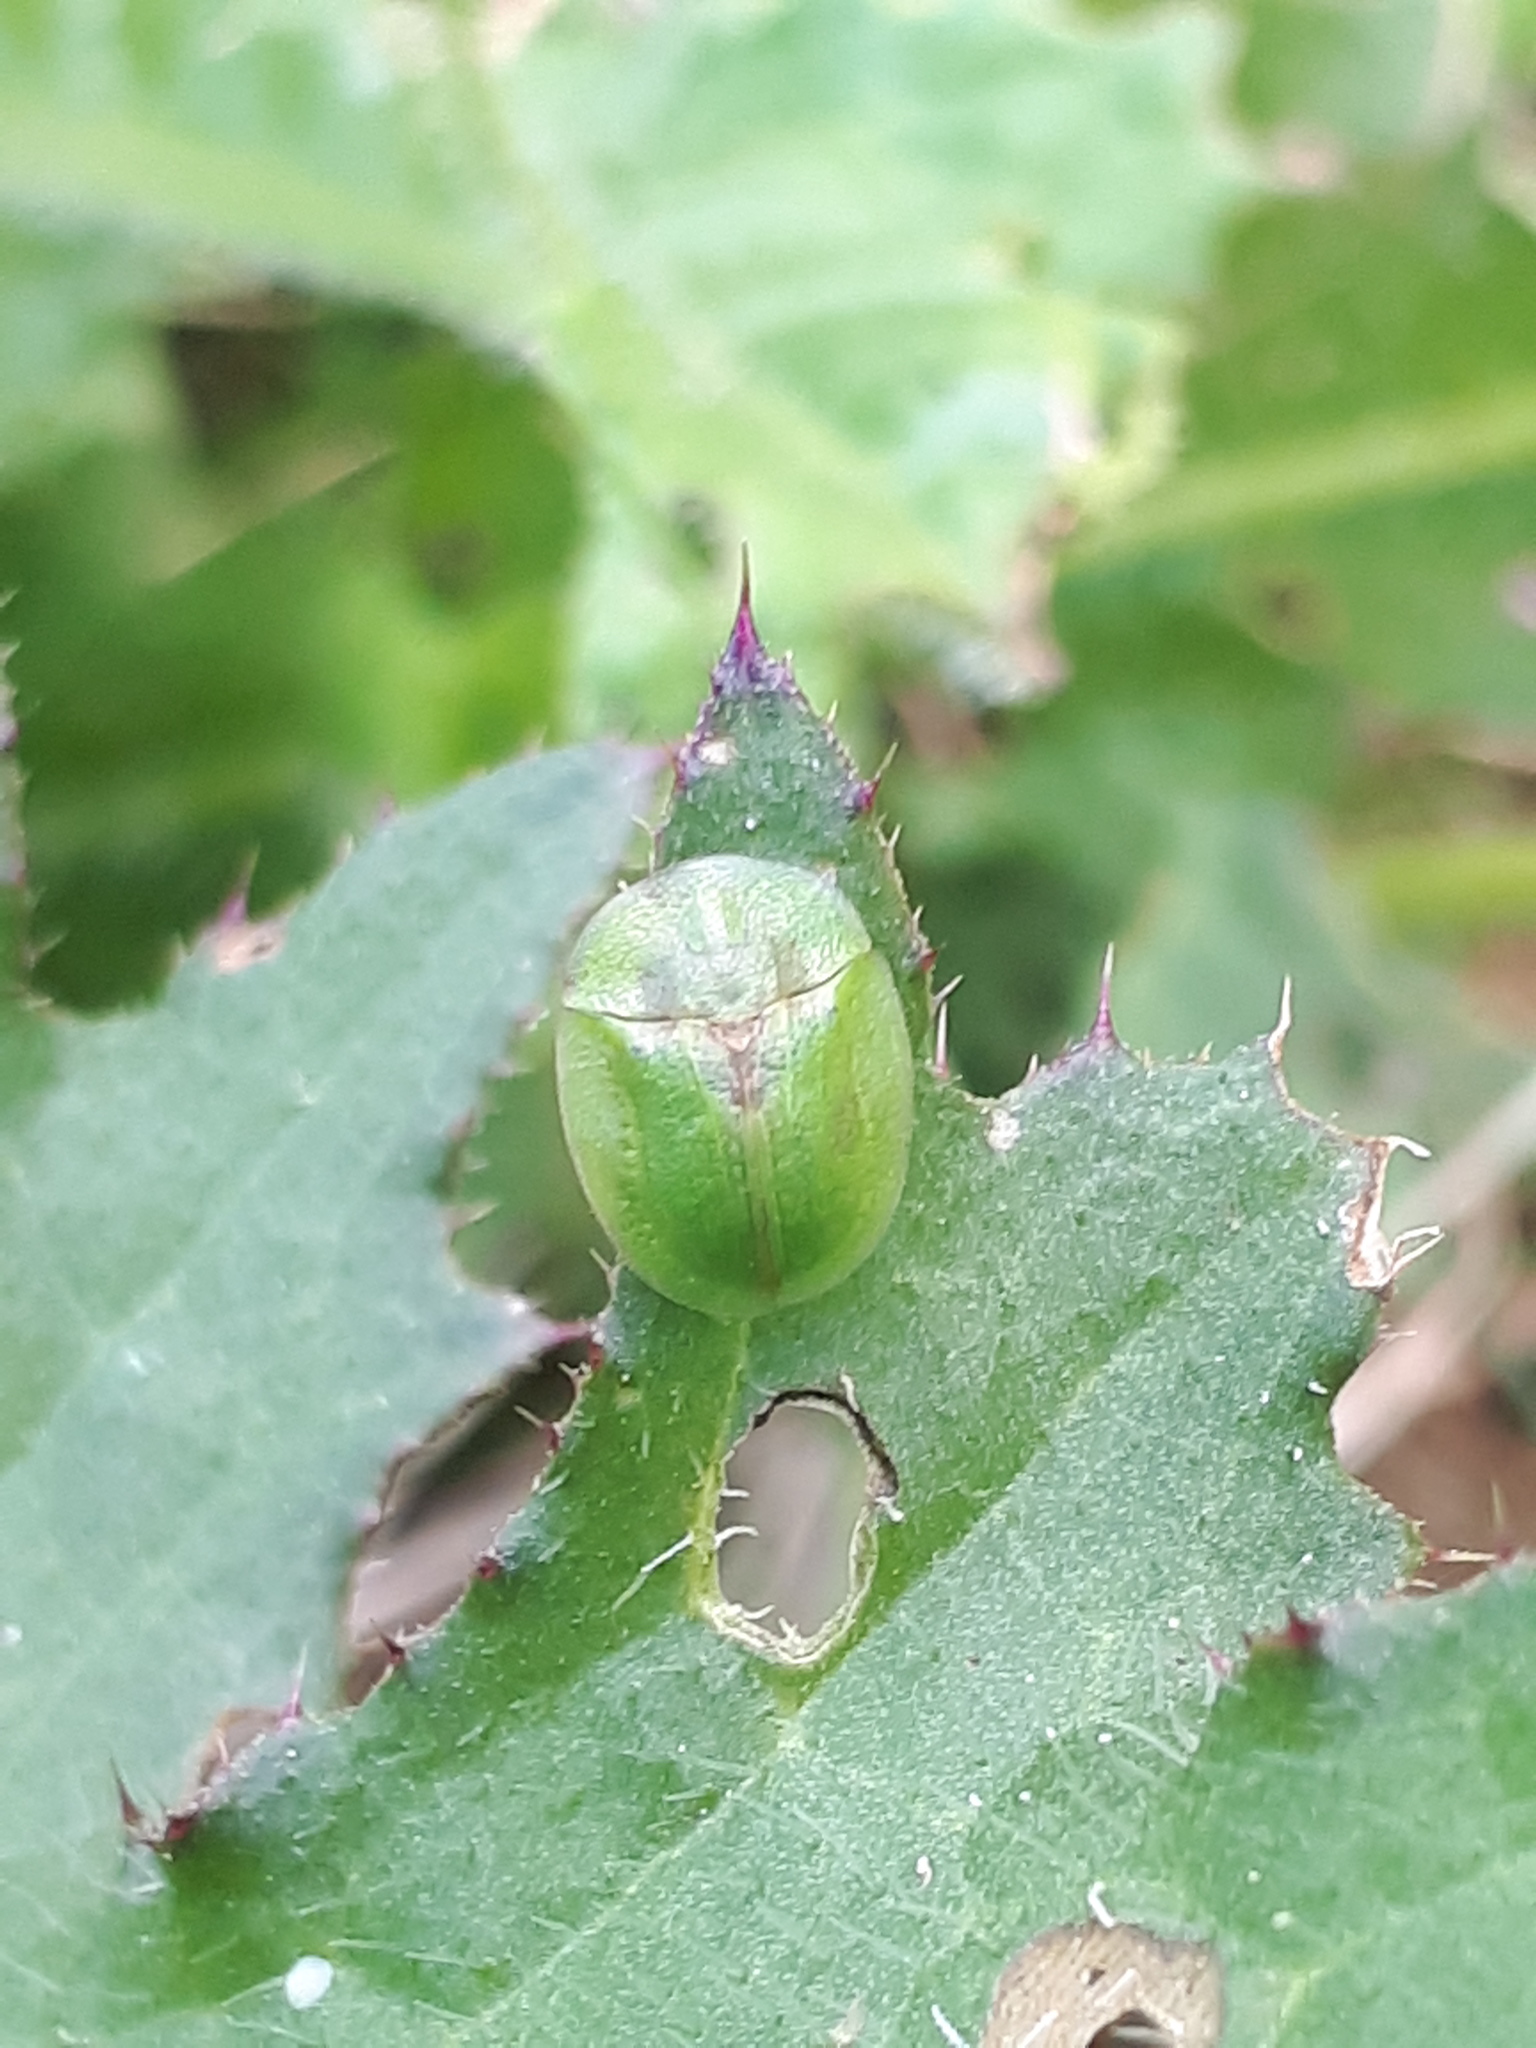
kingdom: Animalia
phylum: Arthropoda
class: Insecta
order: Coleoptera
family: Chrysomelidae
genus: Cassida
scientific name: Cassida rubiginosa
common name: Thistle tortoise beetle
